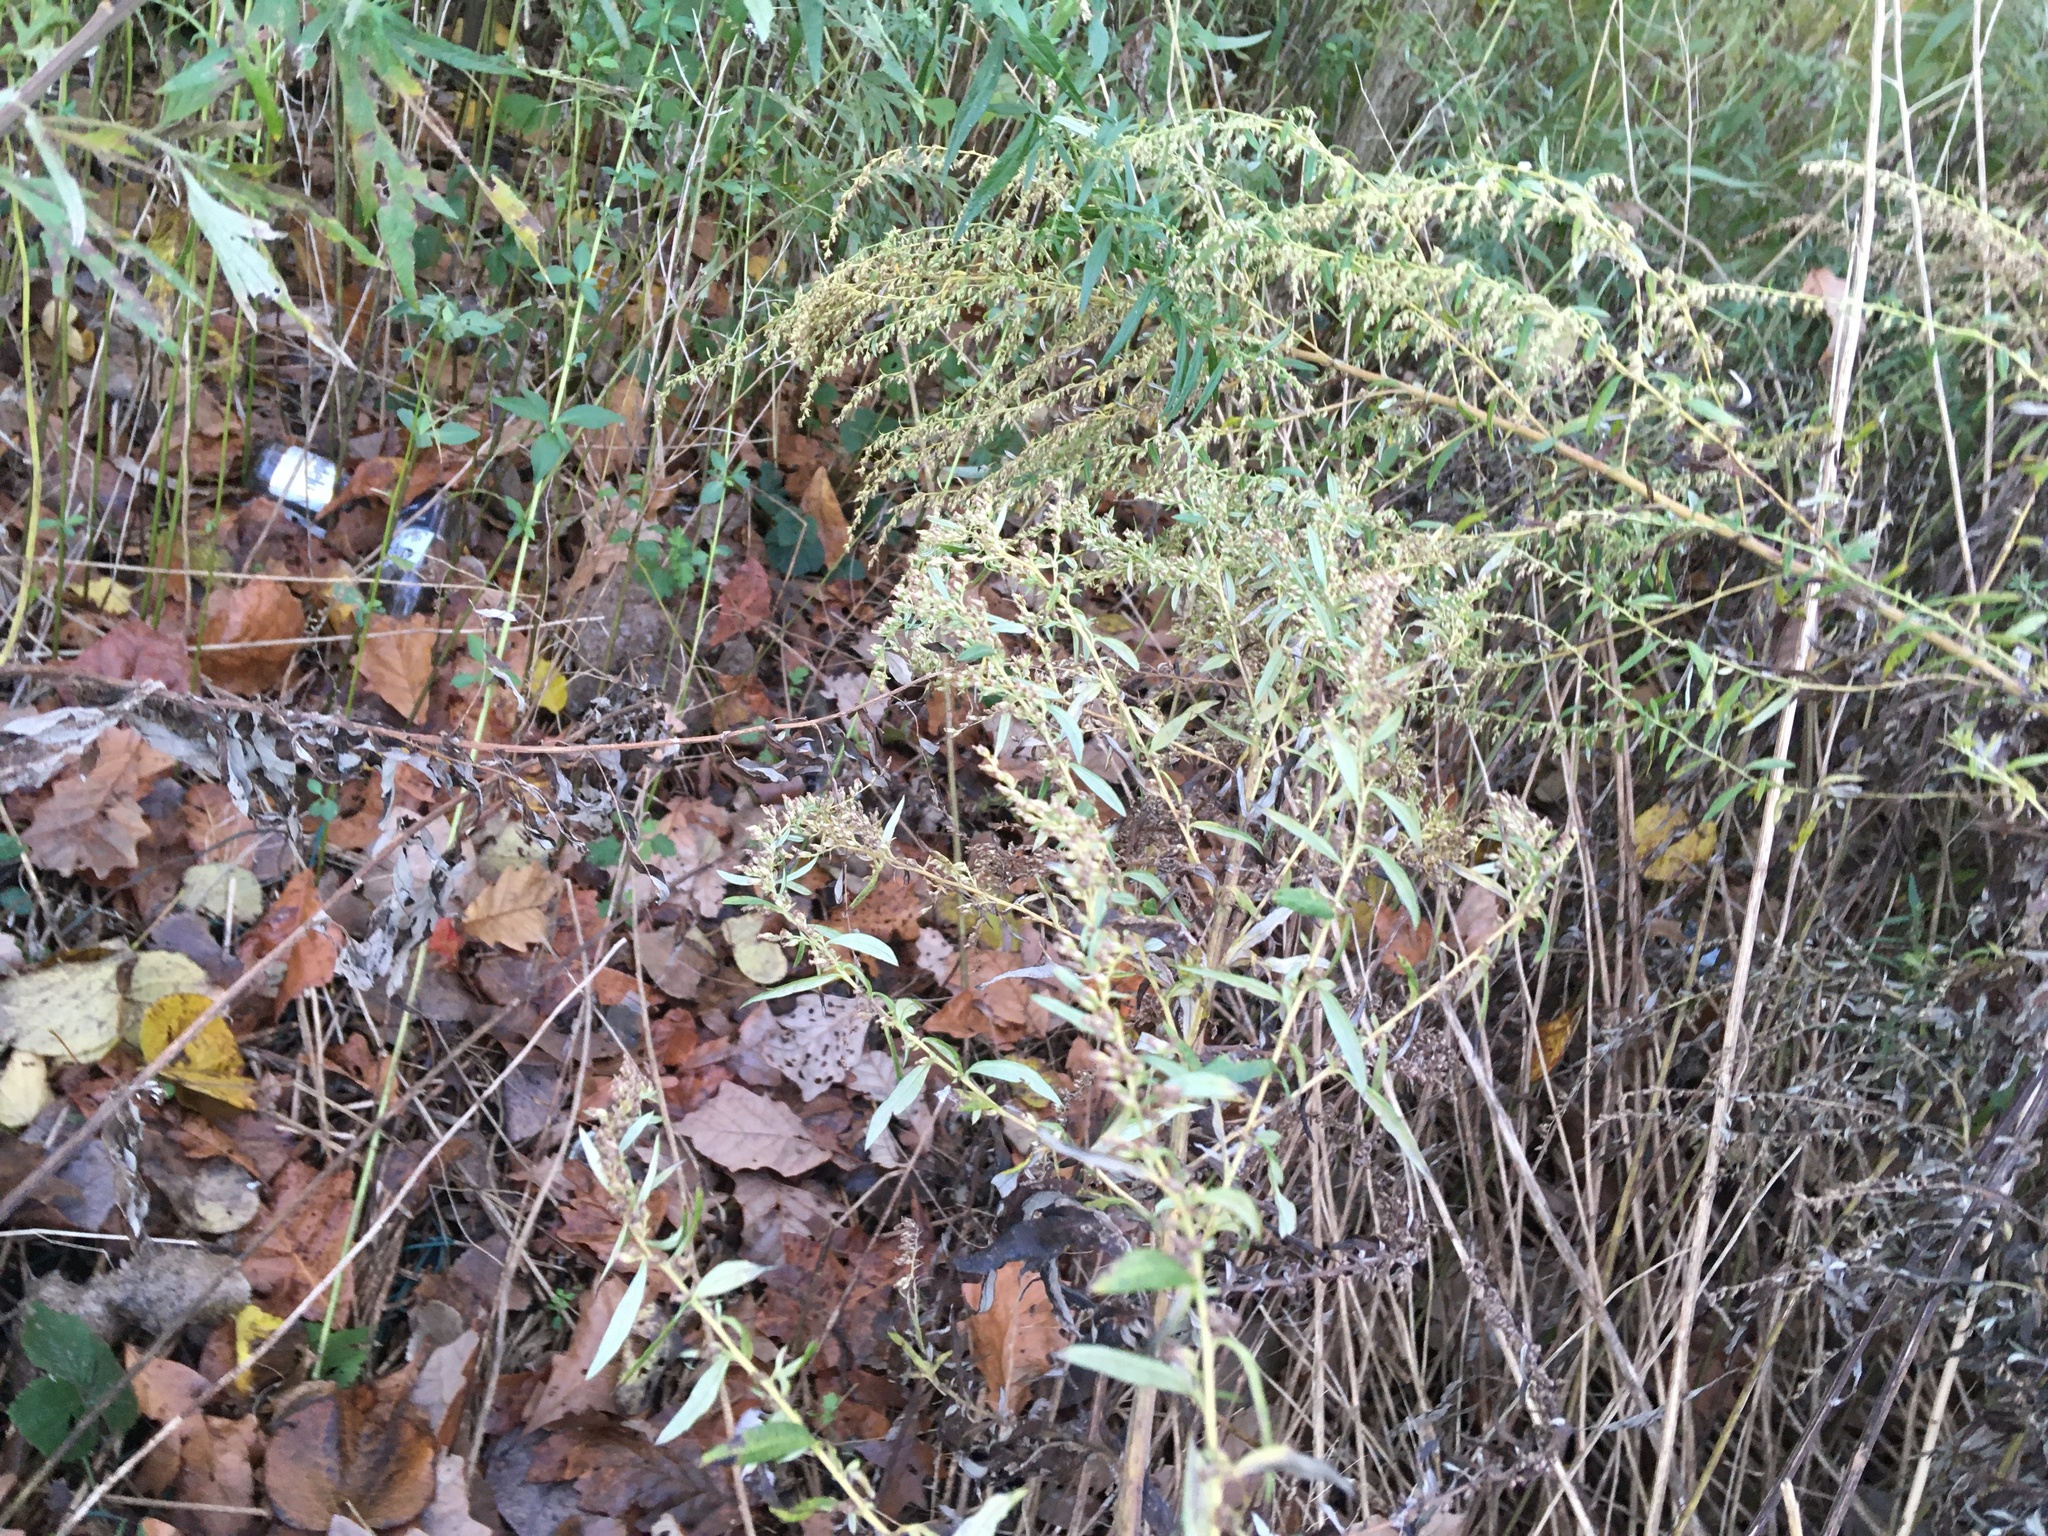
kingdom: Plantae
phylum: Tracheophyta
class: Magnoliopsida
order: Asterales
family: Asteraceae
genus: Artemisia
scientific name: Artemisia vulgaris
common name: Mugwort
